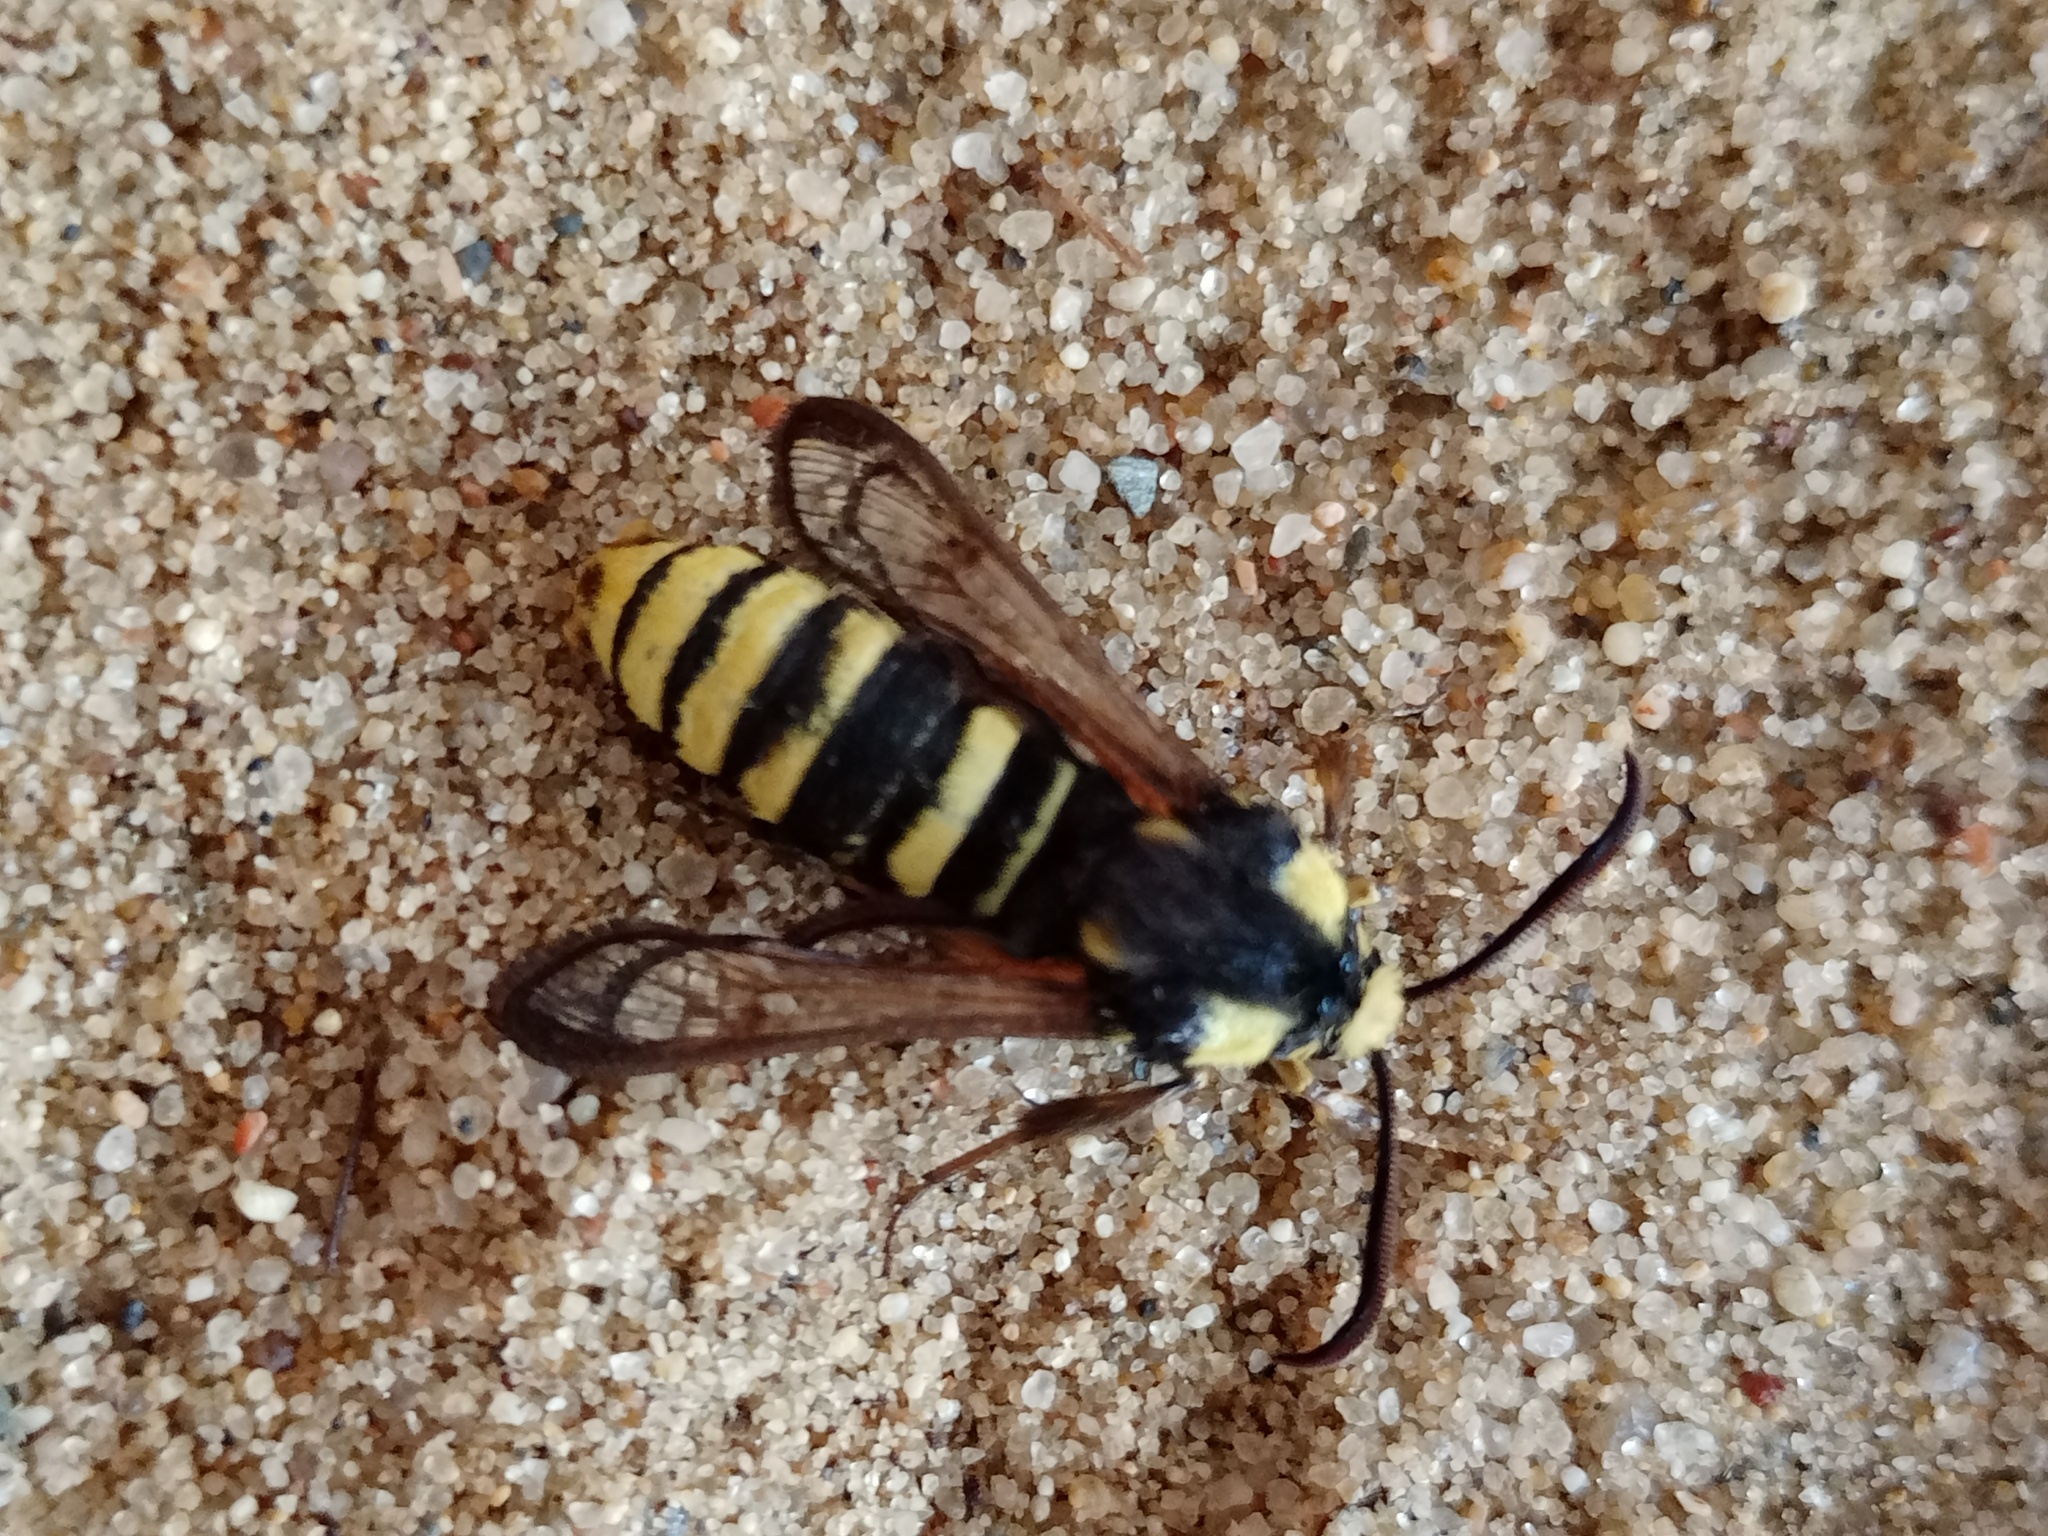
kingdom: Animalia
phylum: Arthropoda
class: Insecta
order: Lepidoptera
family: Sesiidae
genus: Sesia
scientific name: Sesia apiformis
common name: Hornet moth
